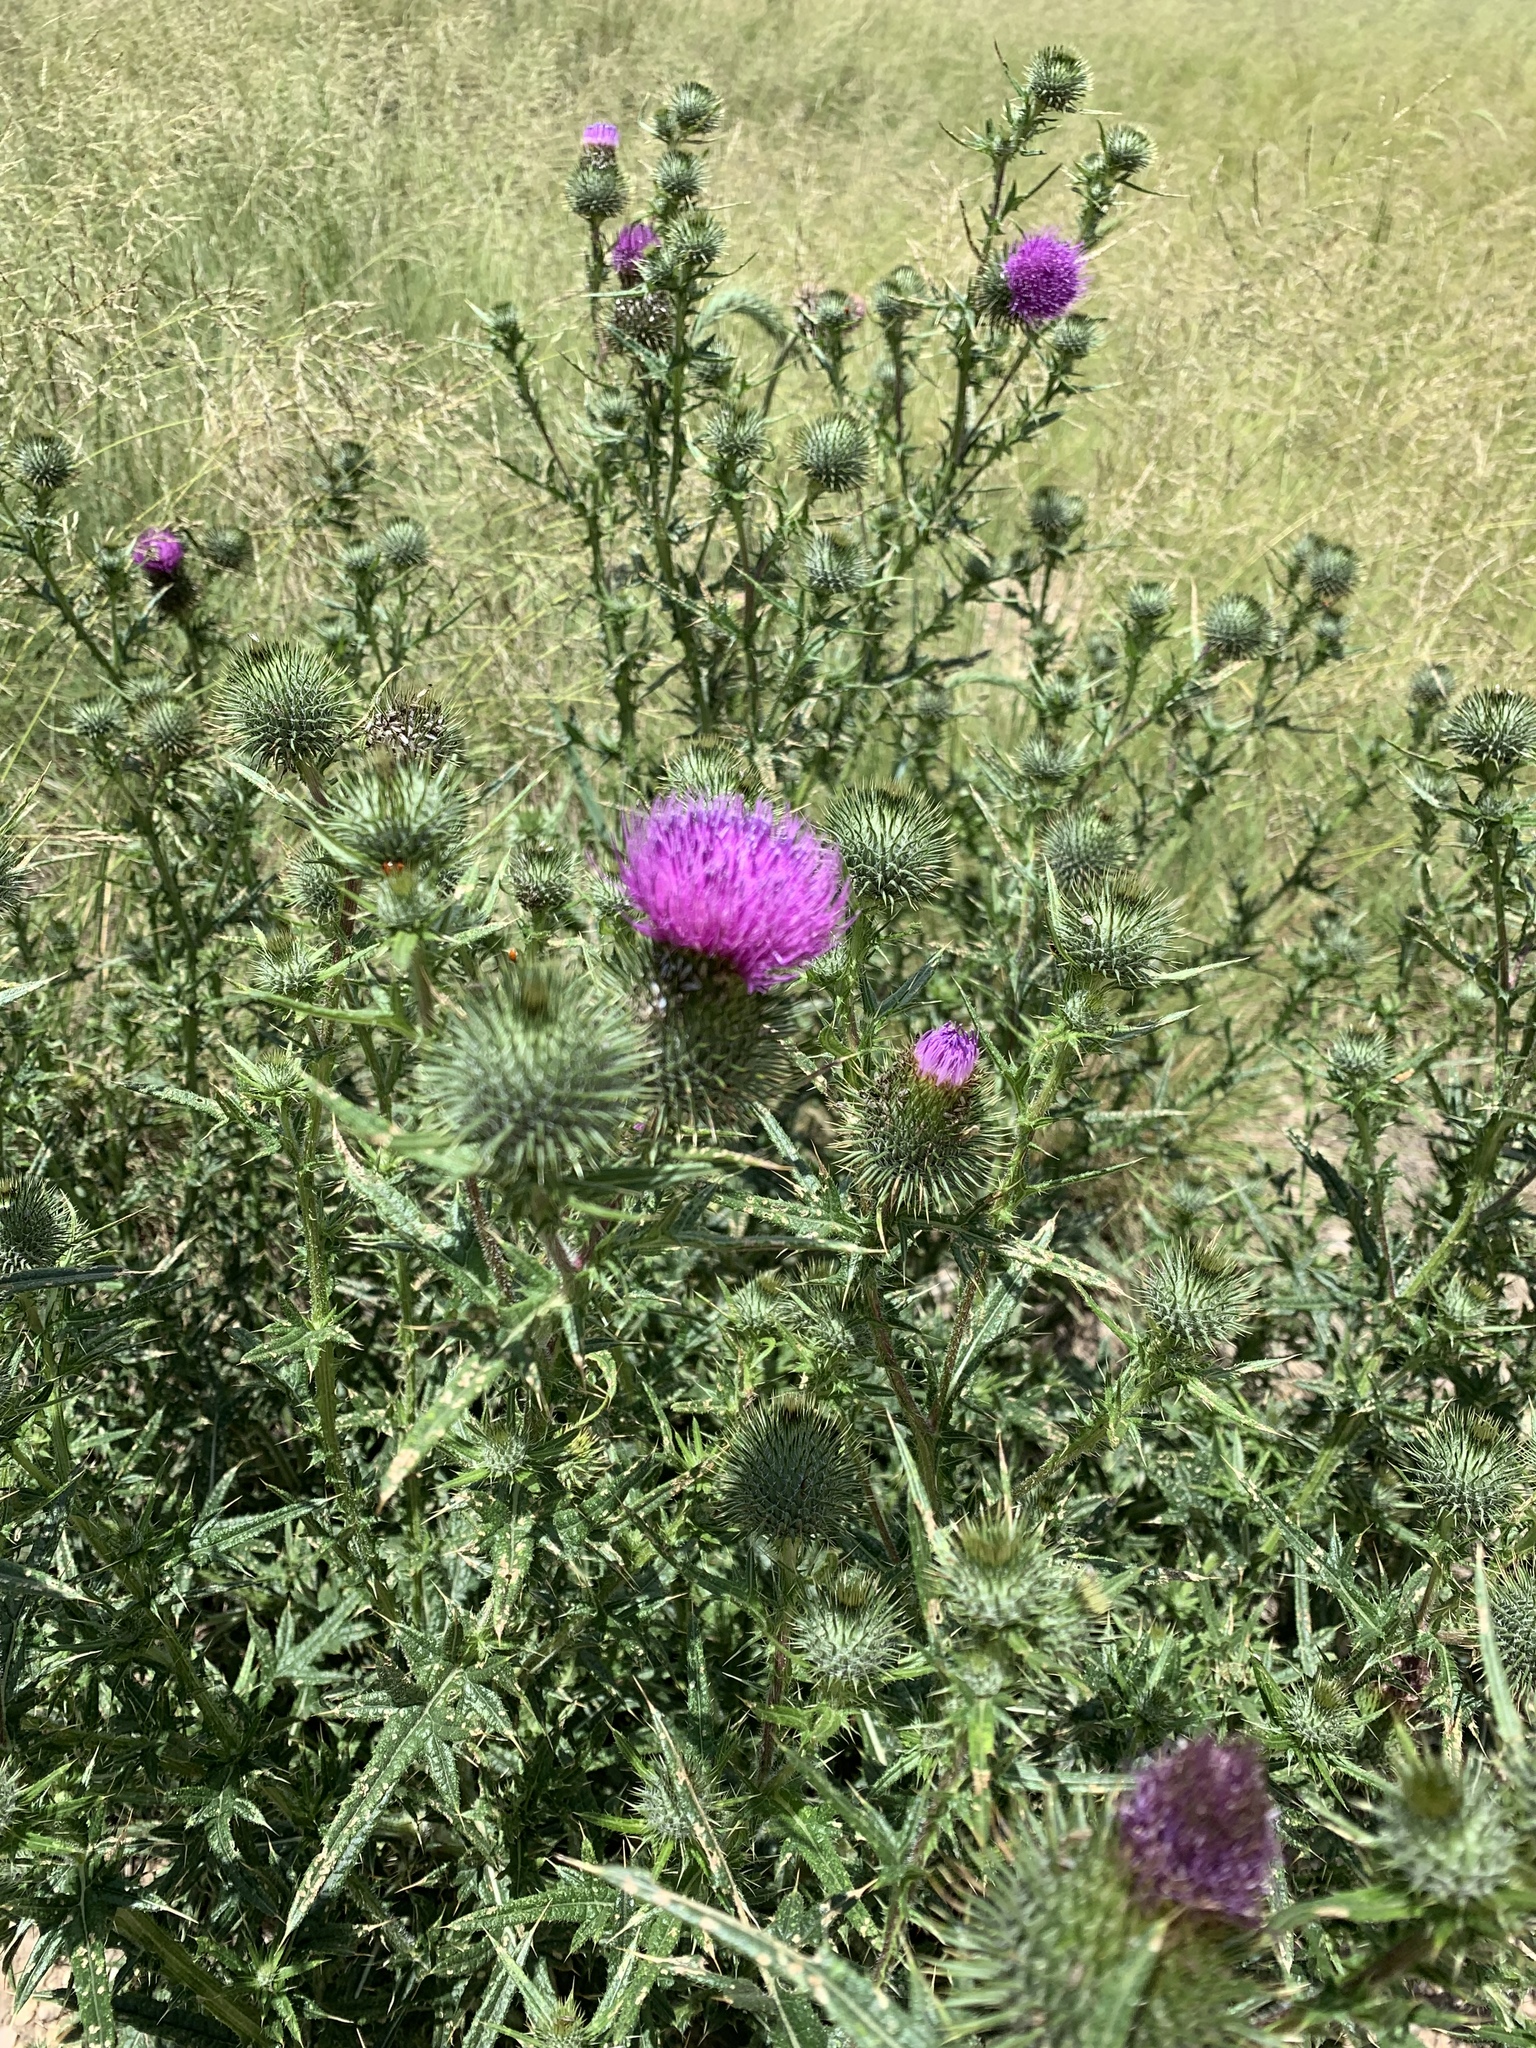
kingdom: Plantae
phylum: Tracheophyta
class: Magnoliopsida
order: Asterales
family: Asteraceae
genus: Cirsium
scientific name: Cirsium vulgare
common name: Bull thistle
